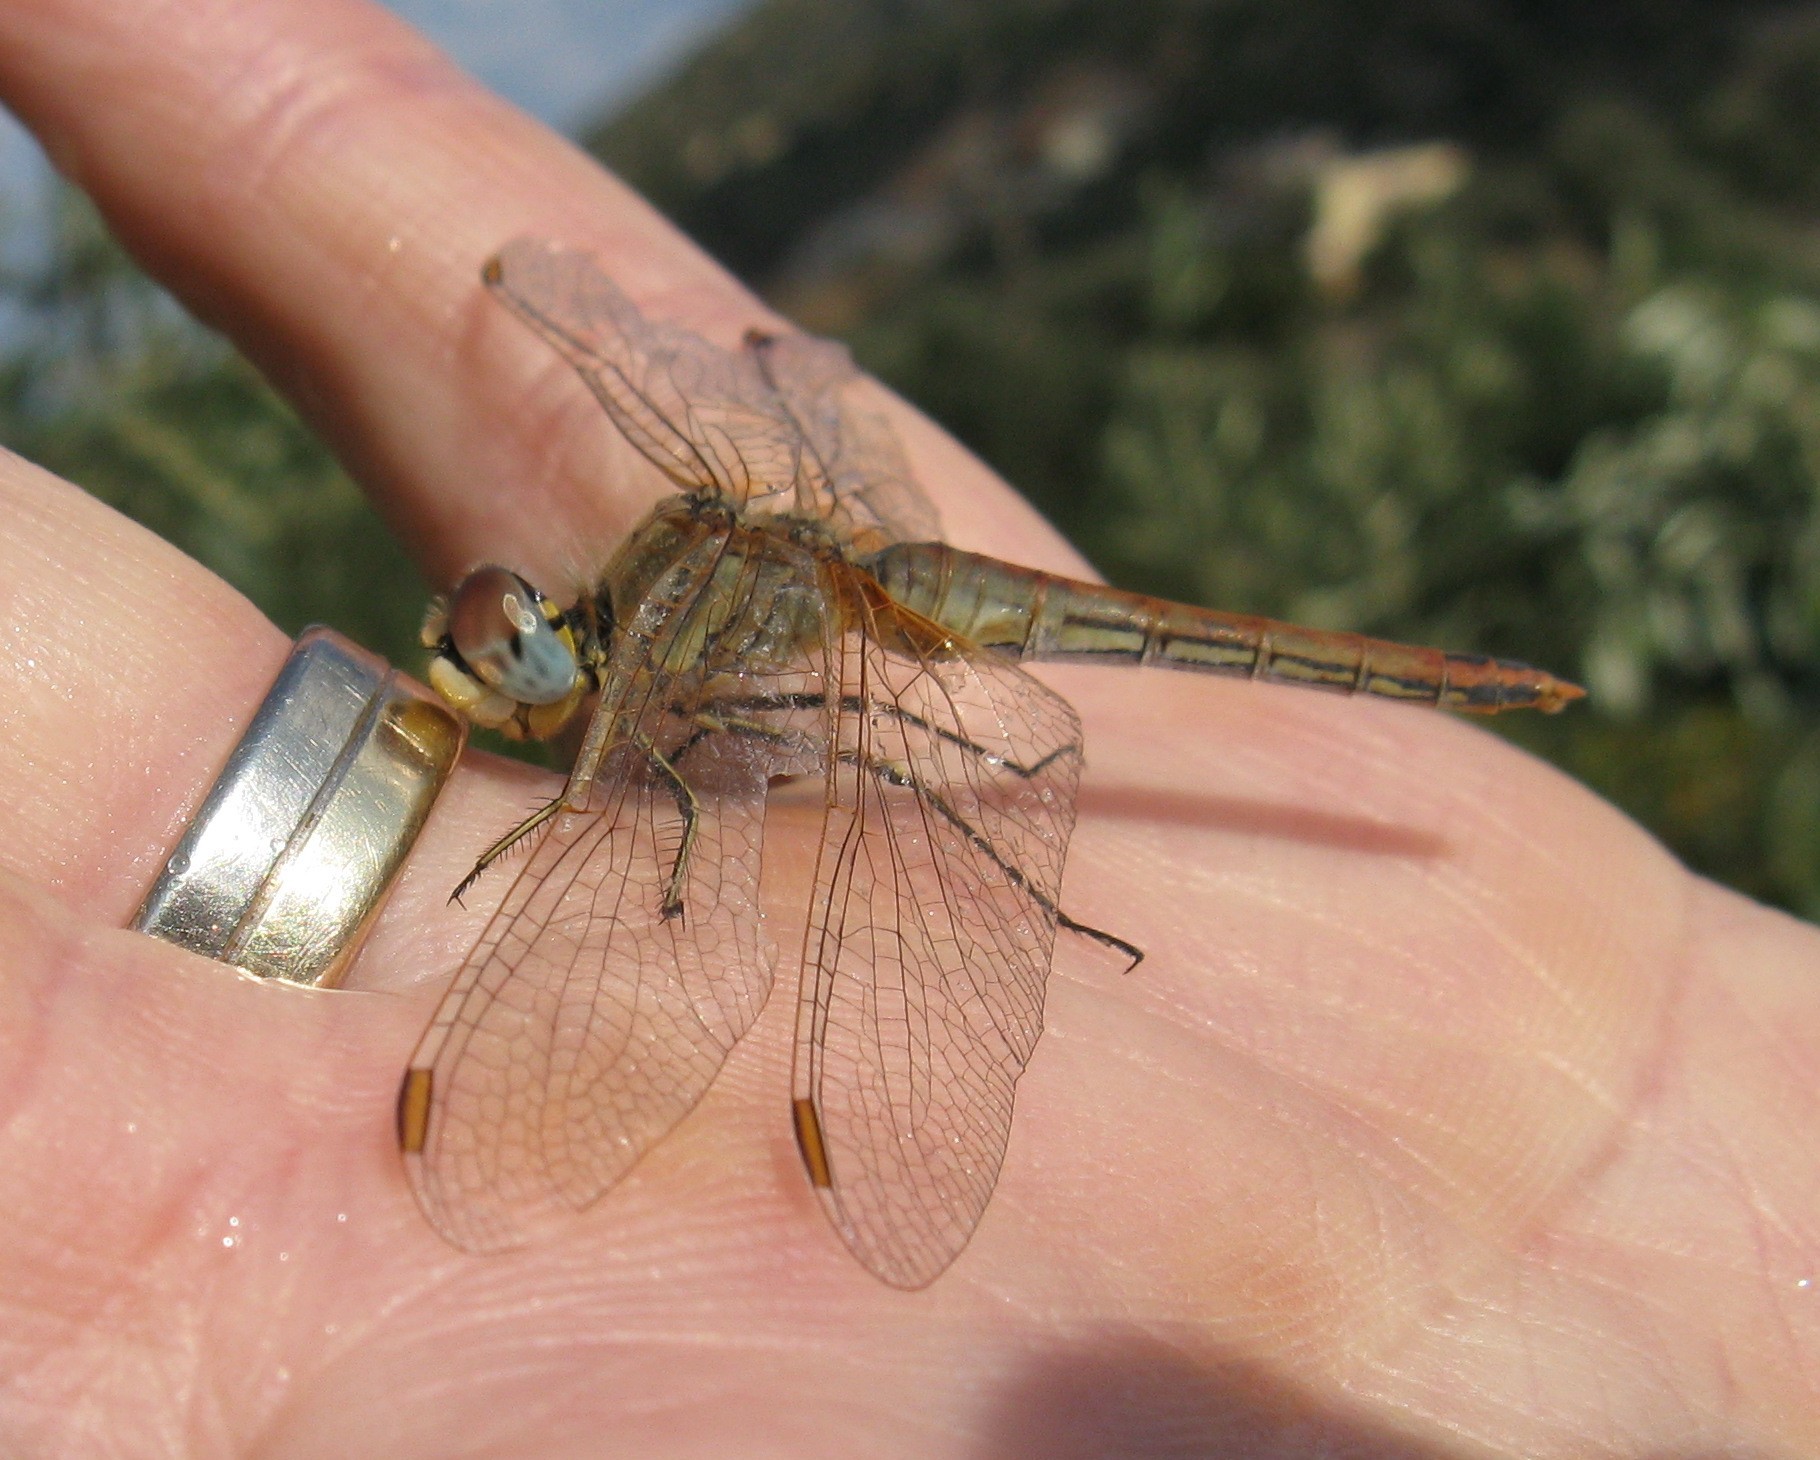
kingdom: Animalia
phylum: Arthropoda
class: Insecta
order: Odonata
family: Libellulidae
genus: Sympetrum
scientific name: Sympetrum fonscolombii
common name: Red-veined darter
